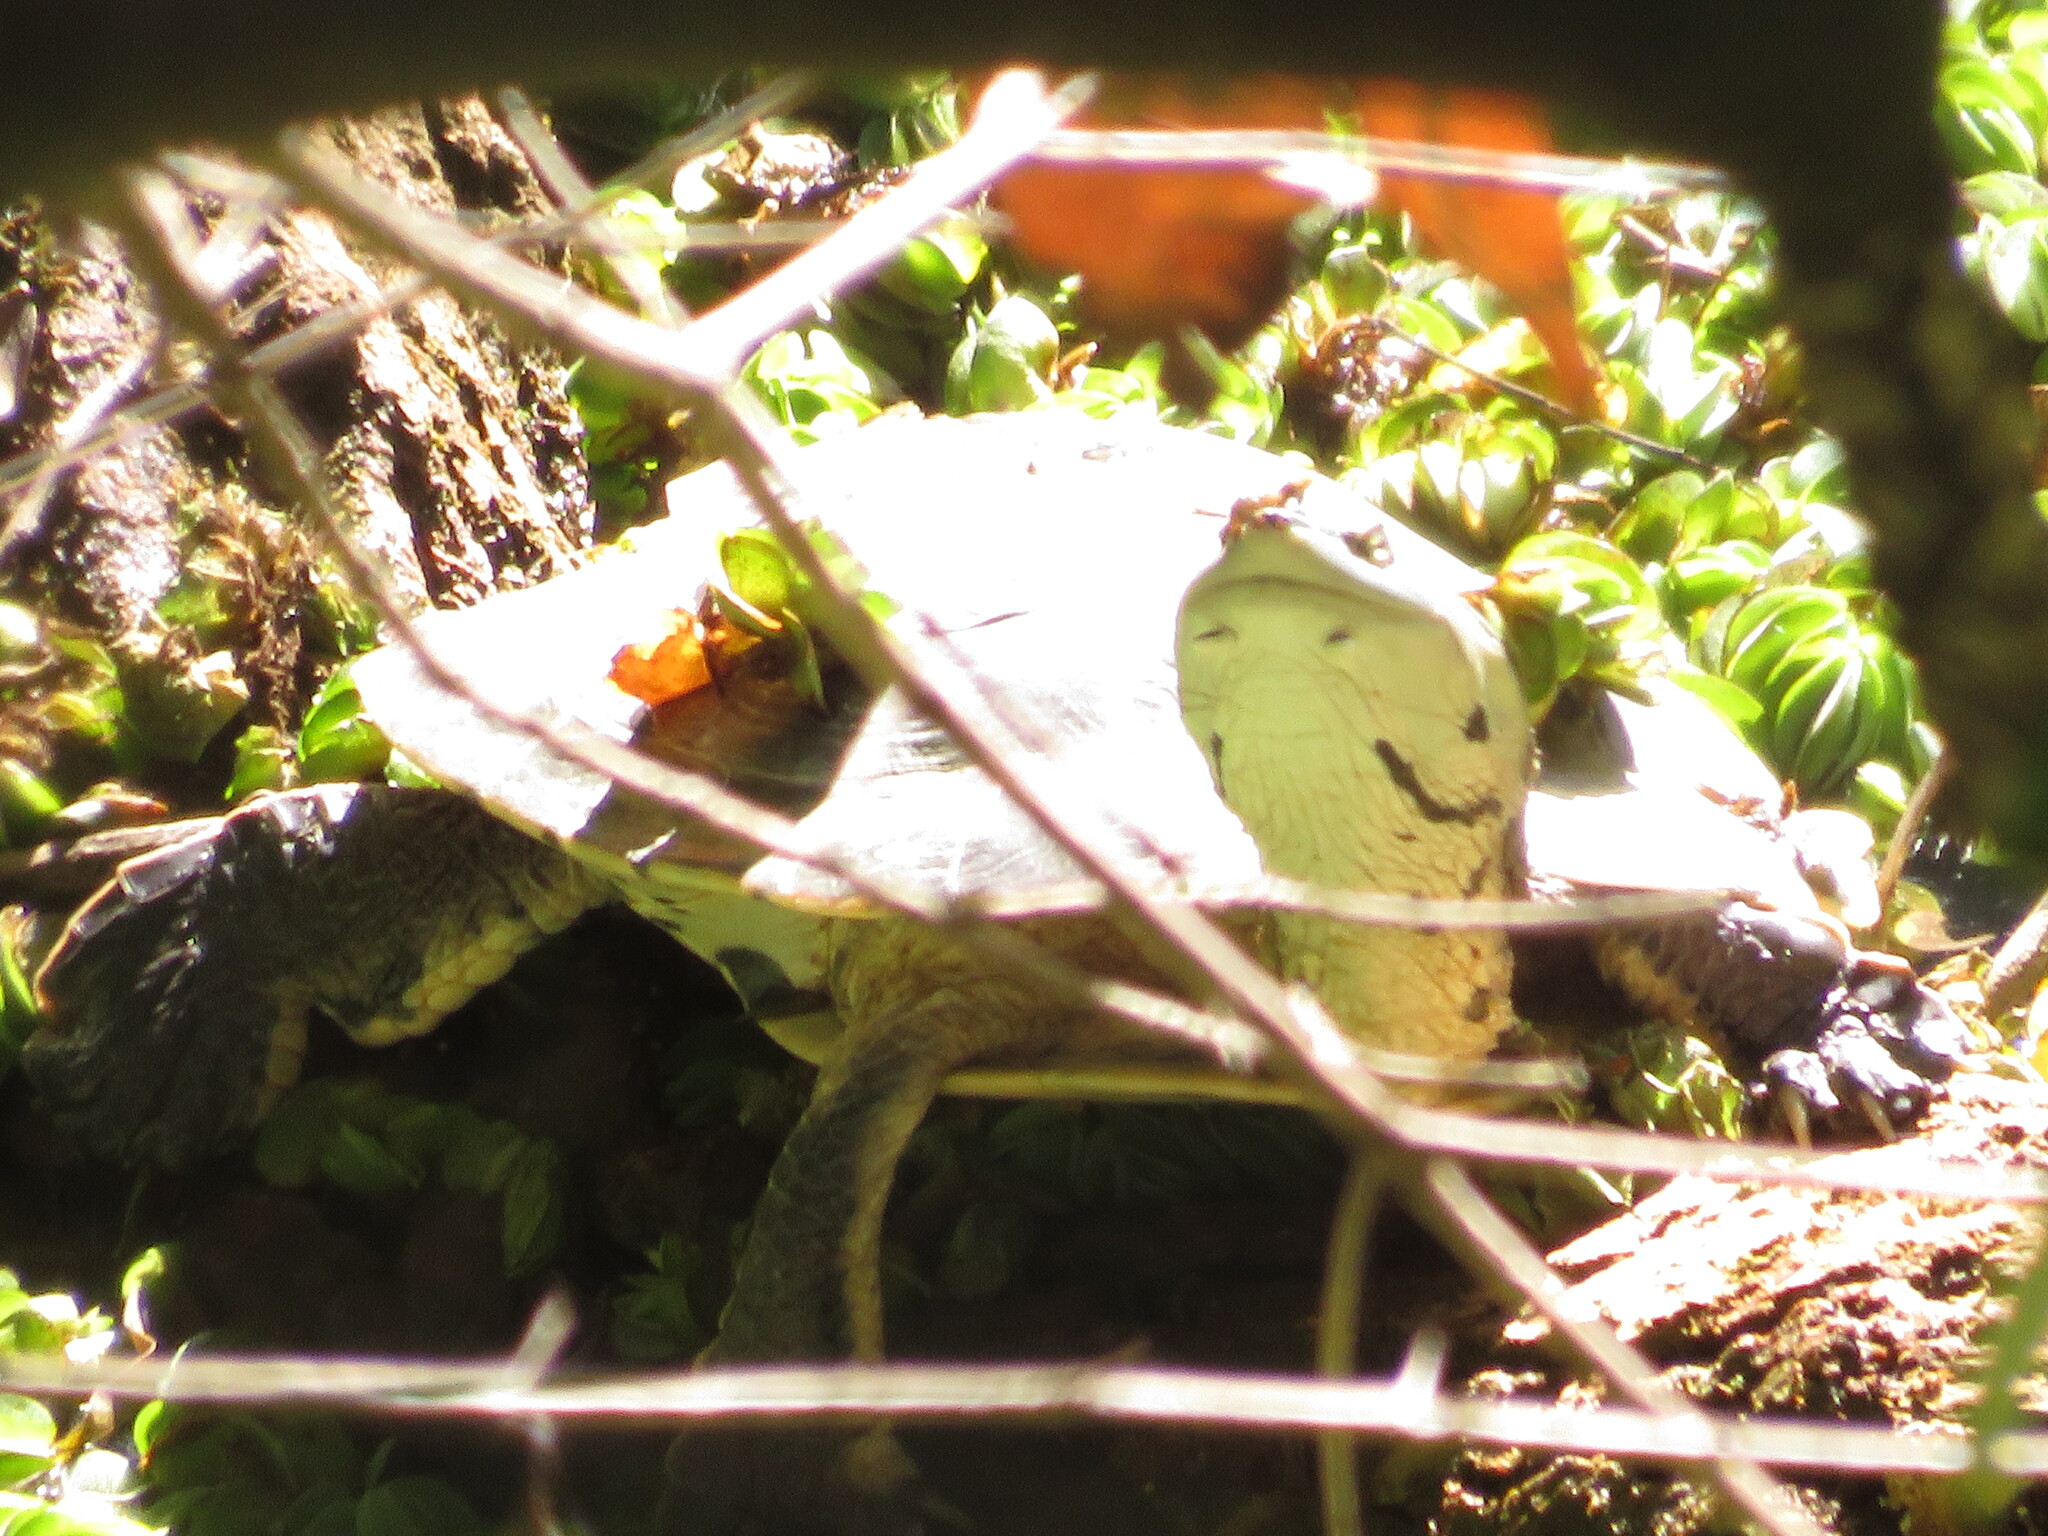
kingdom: Animalia
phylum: Chordata
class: Testudines
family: Chelidae
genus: Phrynops
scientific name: Phrynops hilarii
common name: Side-necked turtle of saint hillaire
